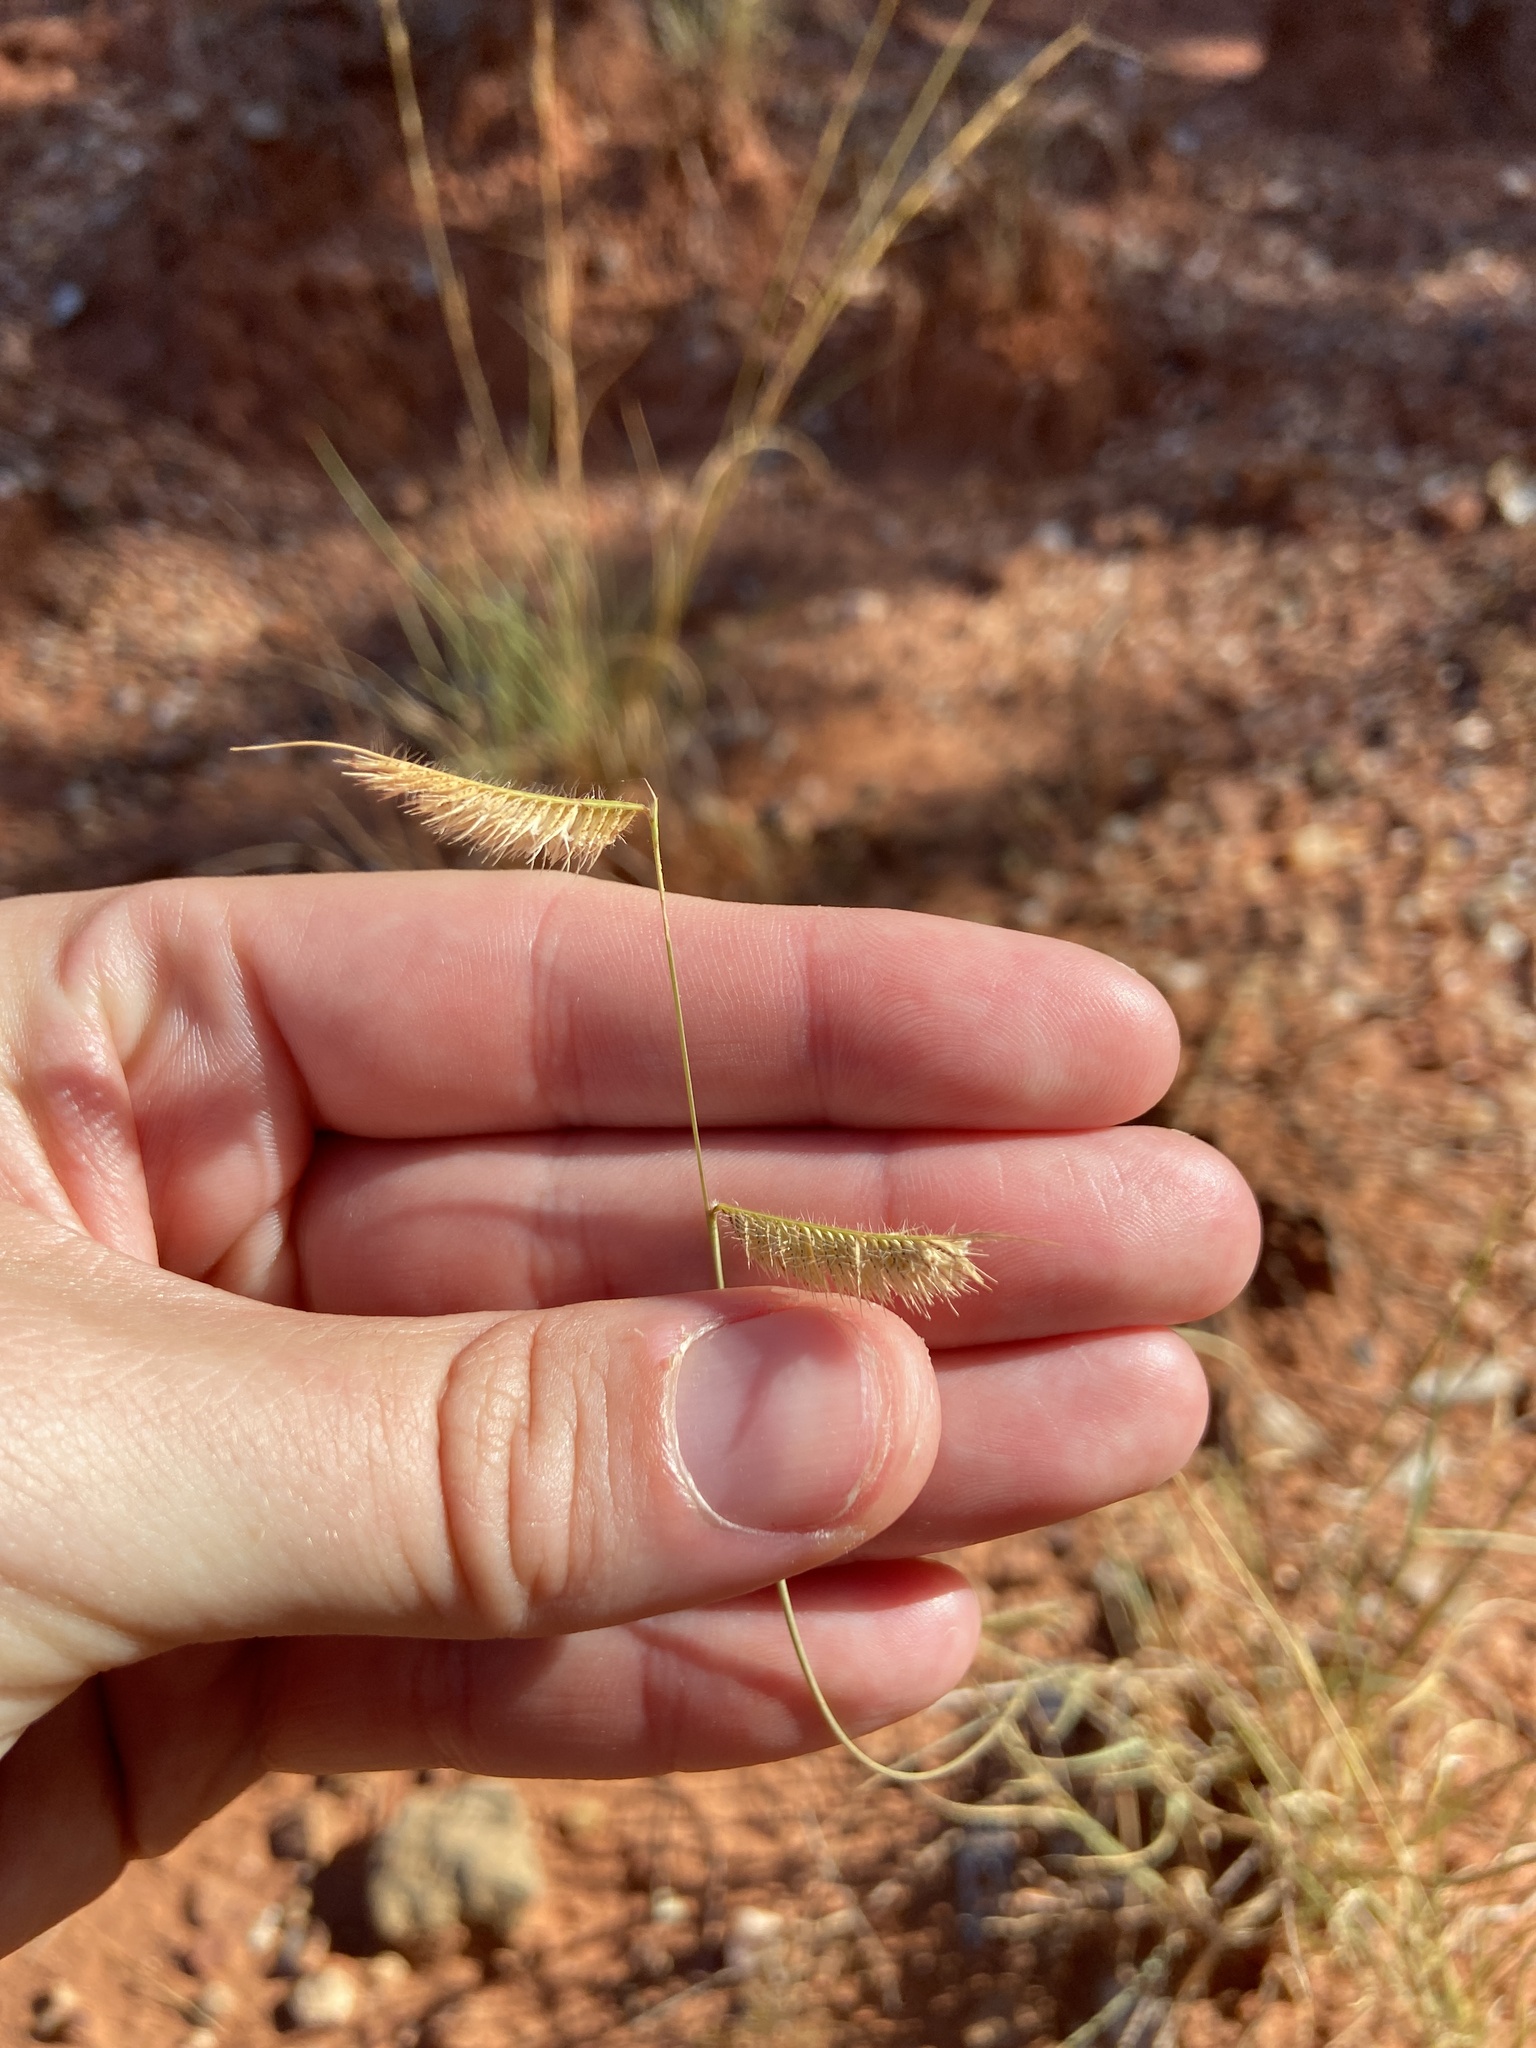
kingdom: Plantae
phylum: Tracheophyta
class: Liliopsida
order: Poales
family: Poaceae
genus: Bouteloua
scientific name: Bouteloua hirsuta
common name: Hairy grama
